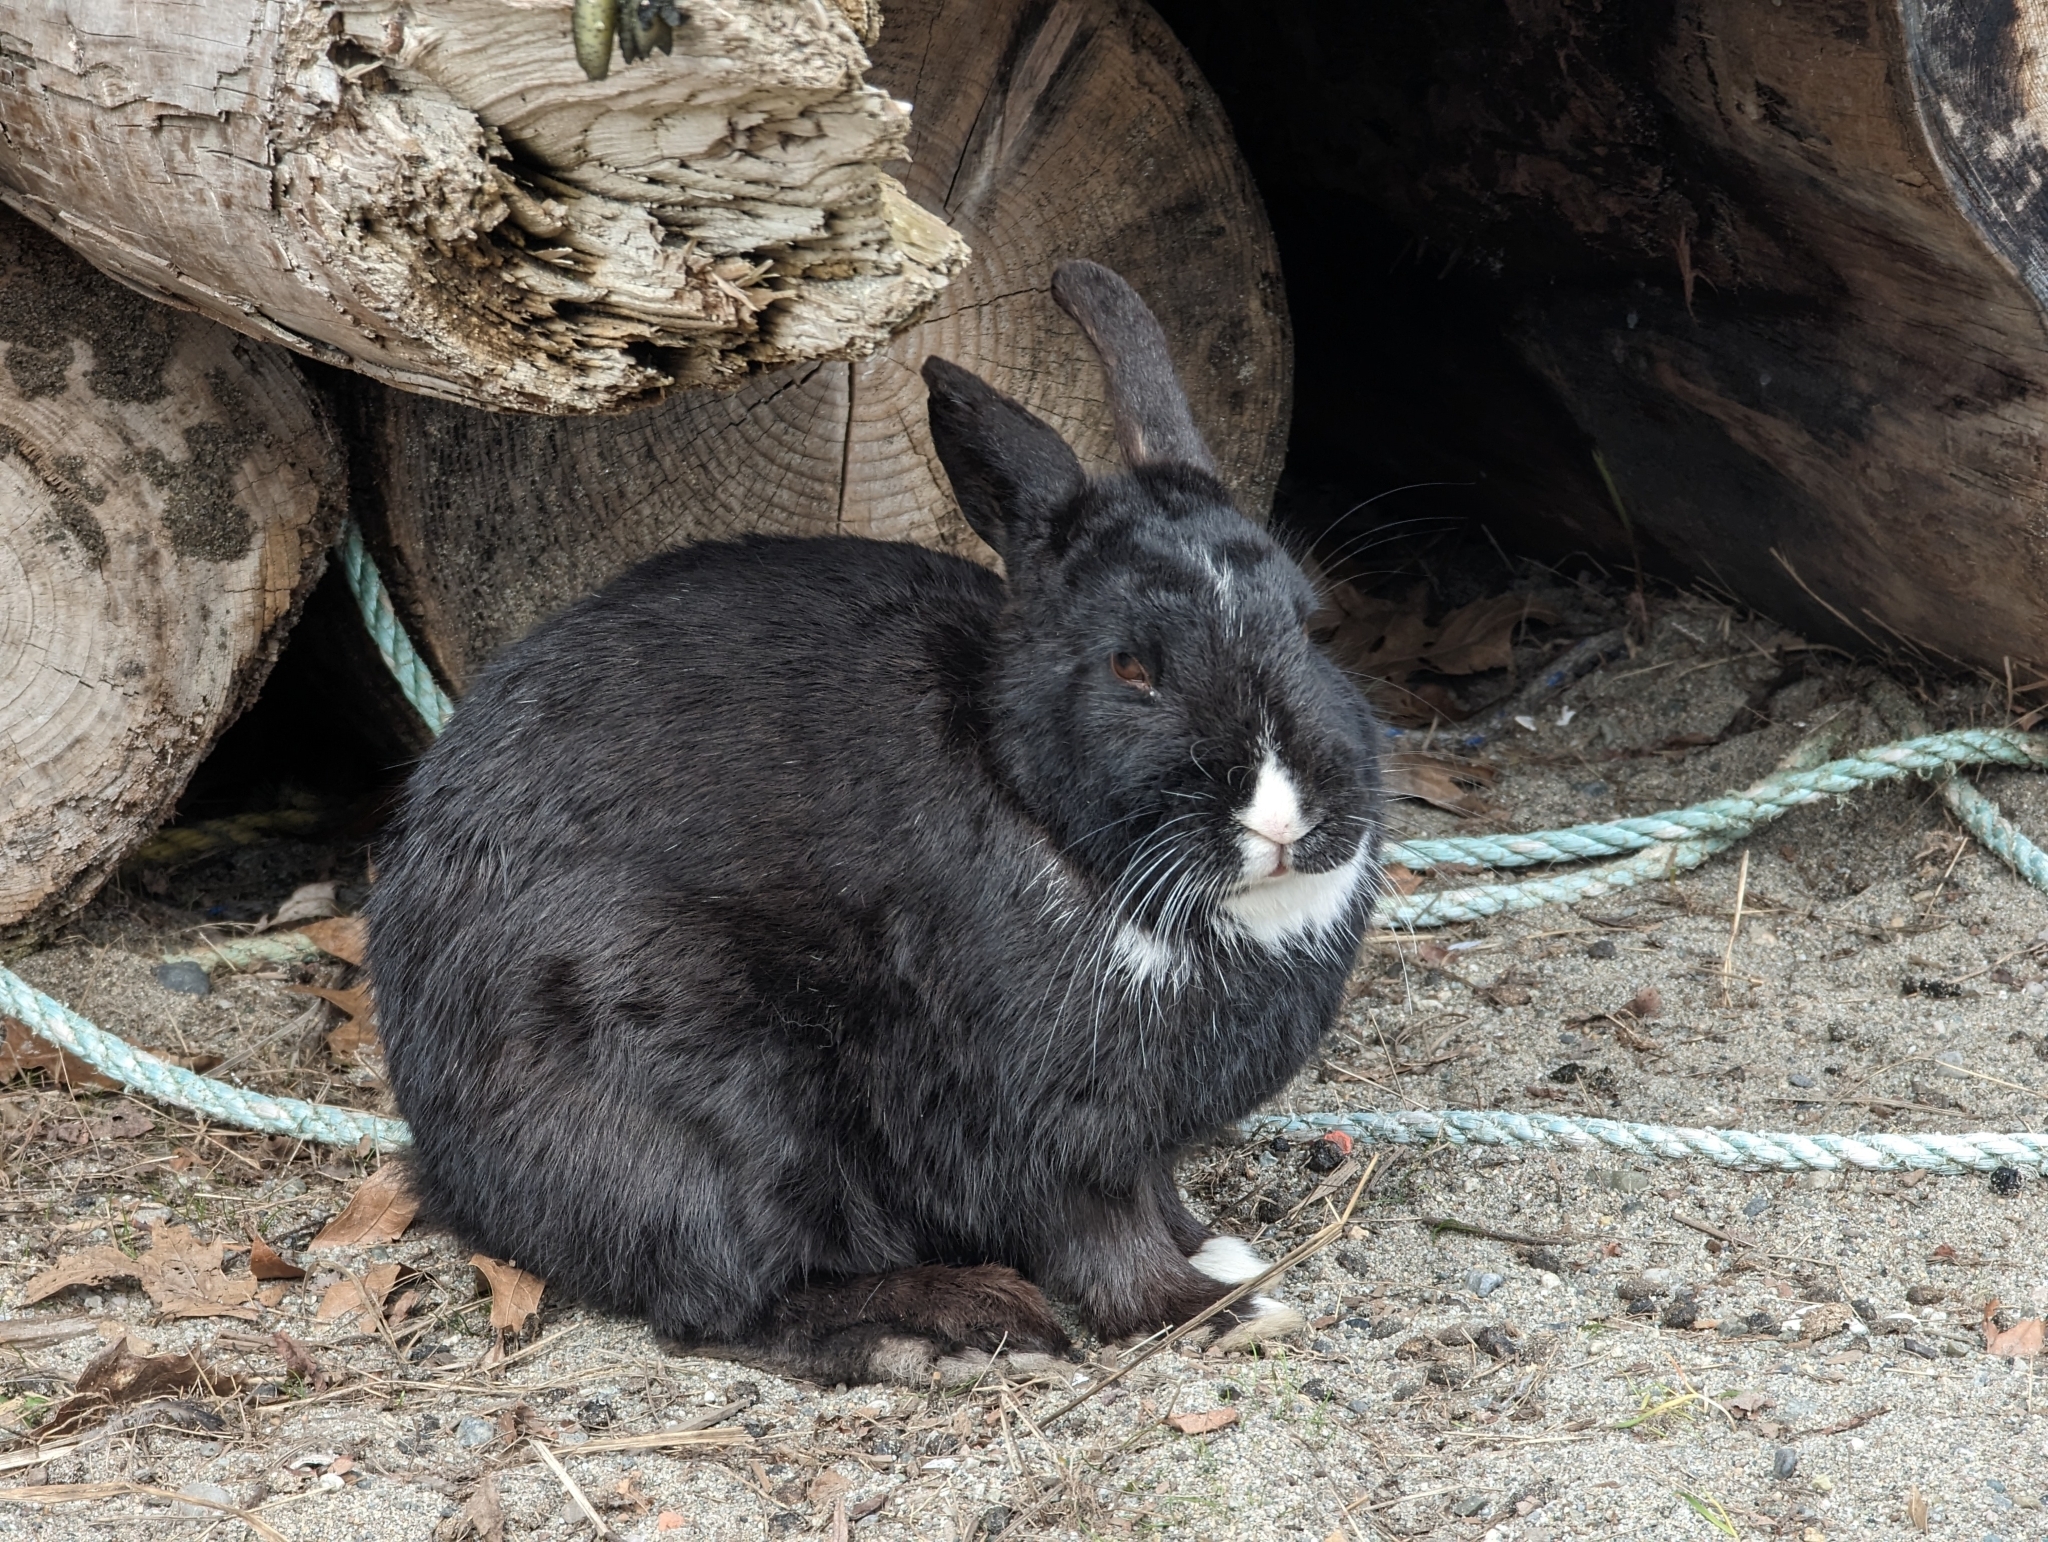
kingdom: Animalia
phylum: Chordata
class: Mammalia
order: Lagomorpha
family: Leporidae
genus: Oryctolagus
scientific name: Oryctolagus cuniculus
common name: European rabbit
